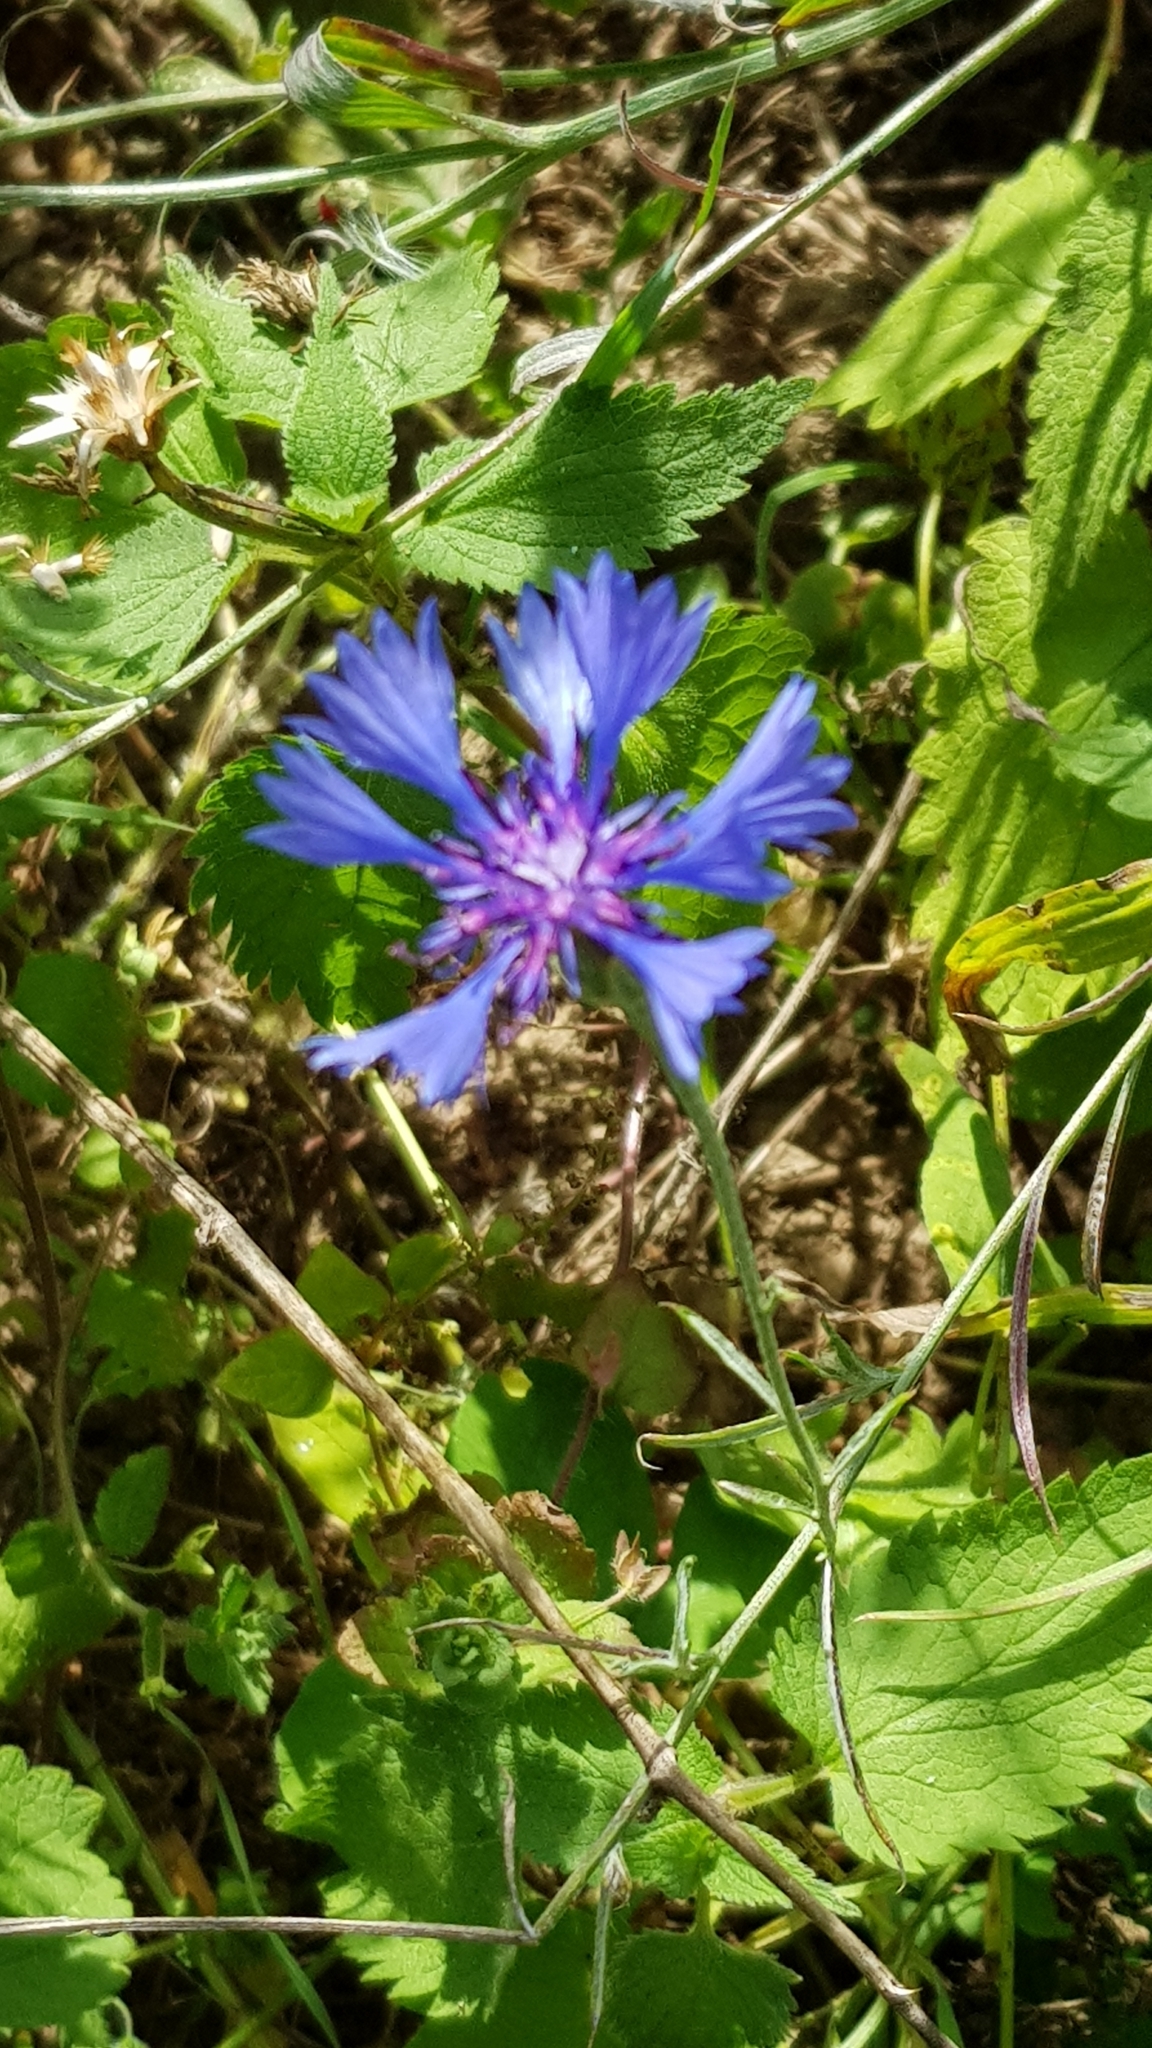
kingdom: Plantae
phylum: Tracheophyta
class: Magnoliopsida
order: Asterales
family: Asteraceae
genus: Centaurea
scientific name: Centaurea cyanus
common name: Cornflower
